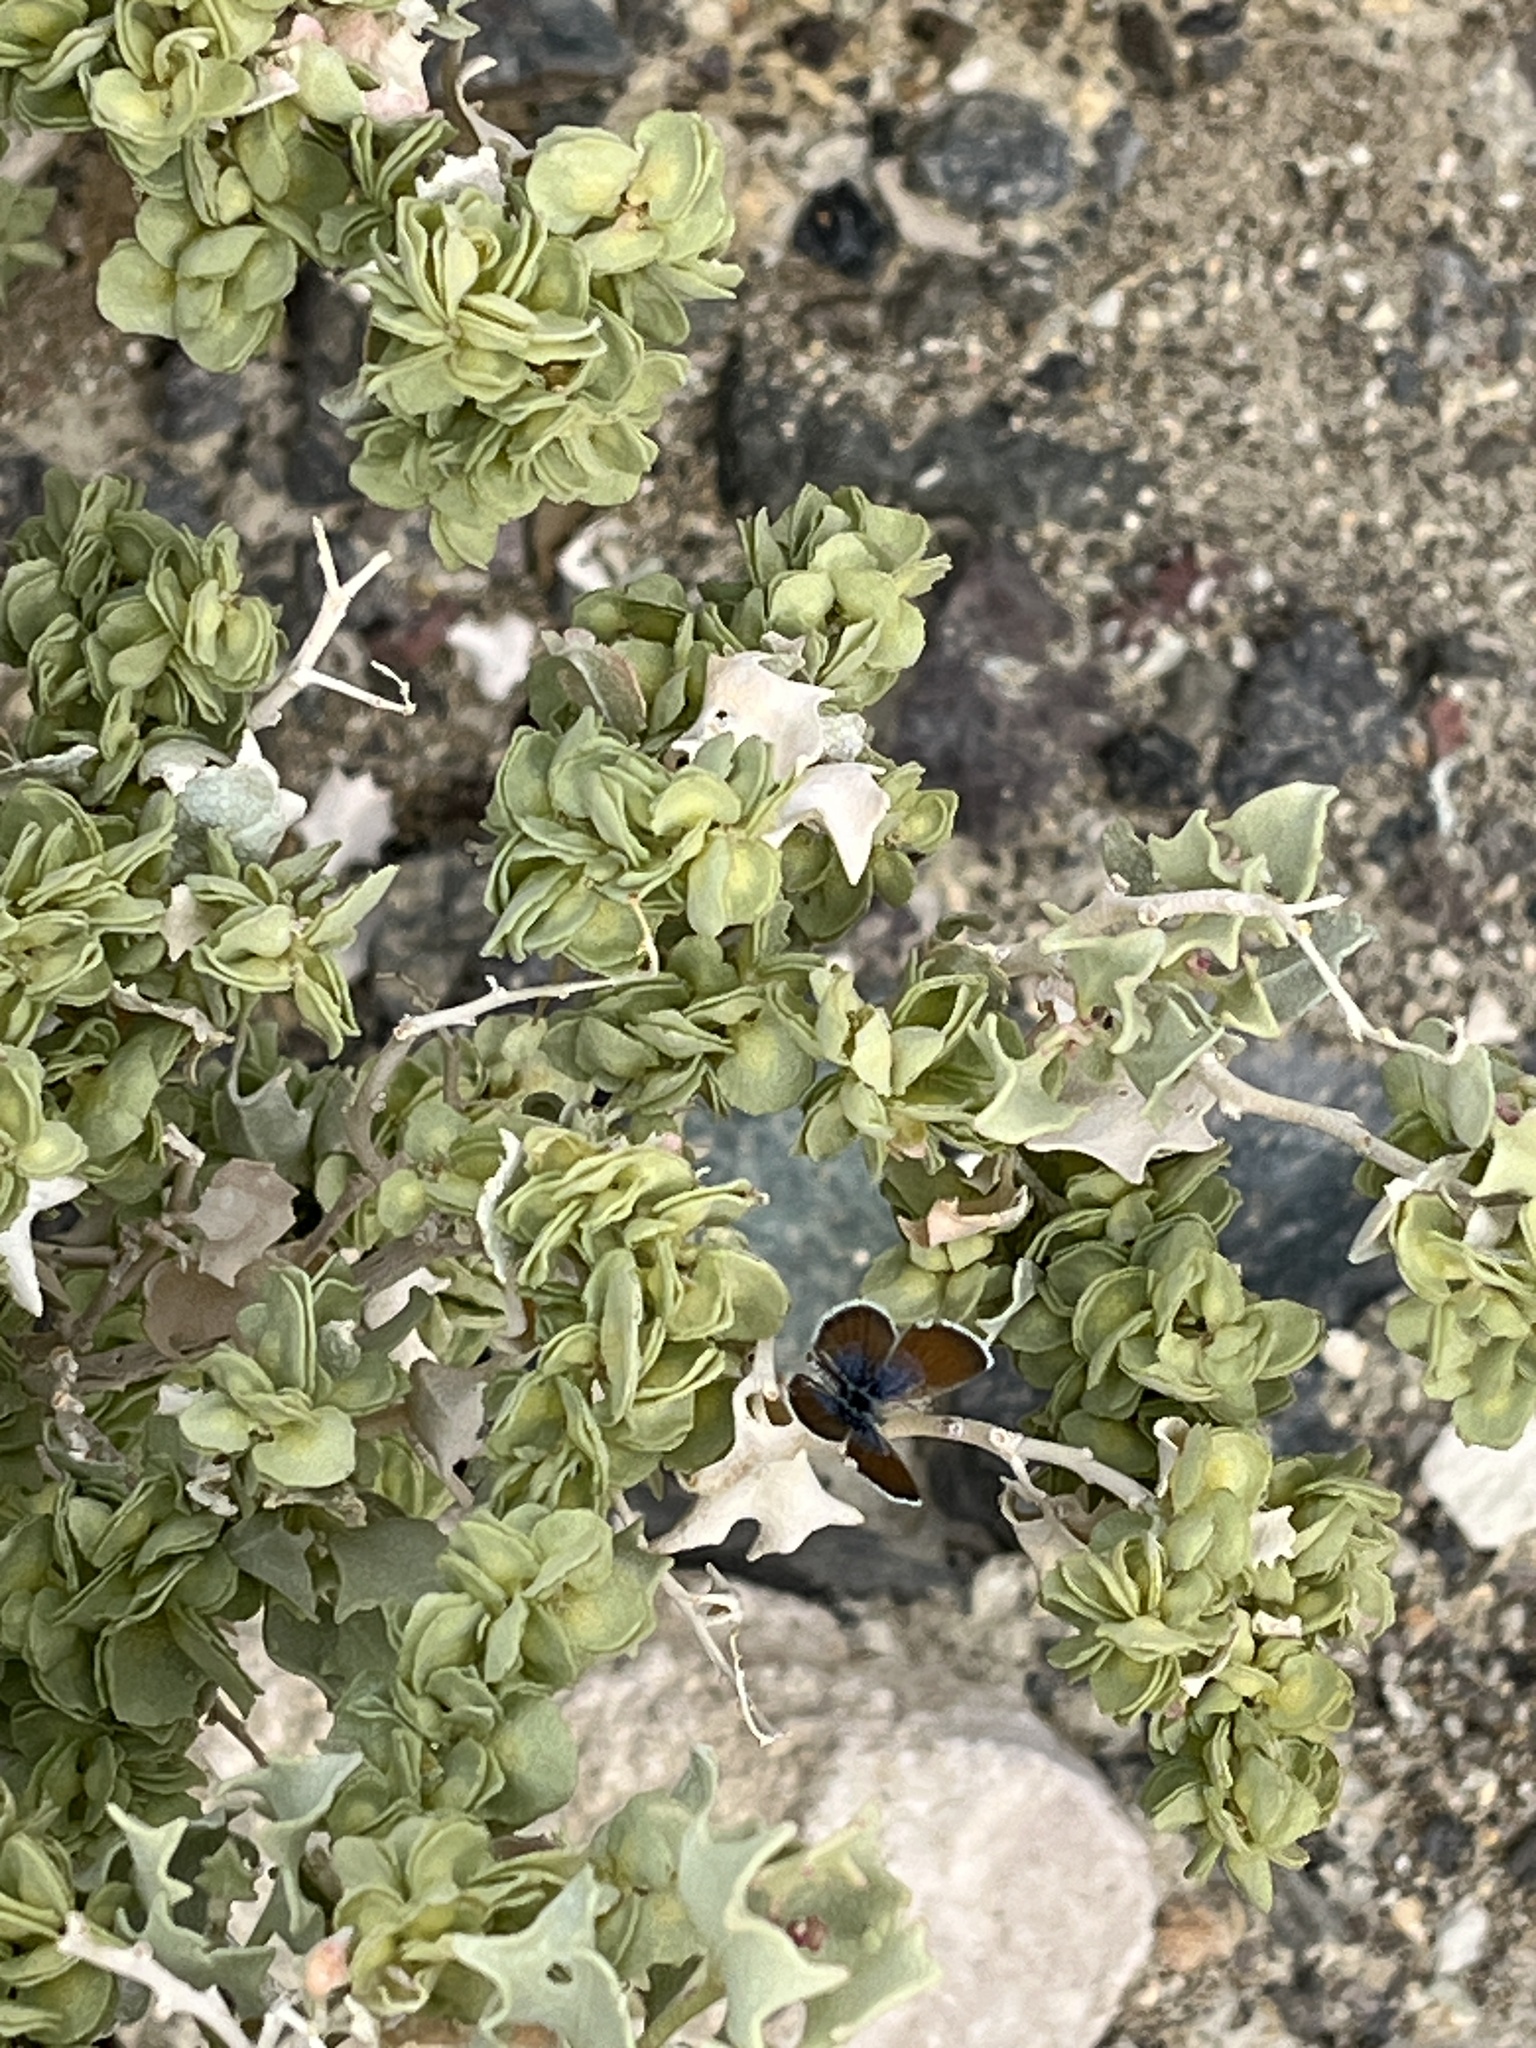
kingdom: Animalia
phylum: Arthropoda
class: Insecta
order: Lepidoptera
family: Lycaenidae
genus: Brephidium
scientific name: Brephidium exilis
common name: Pygmy blue
